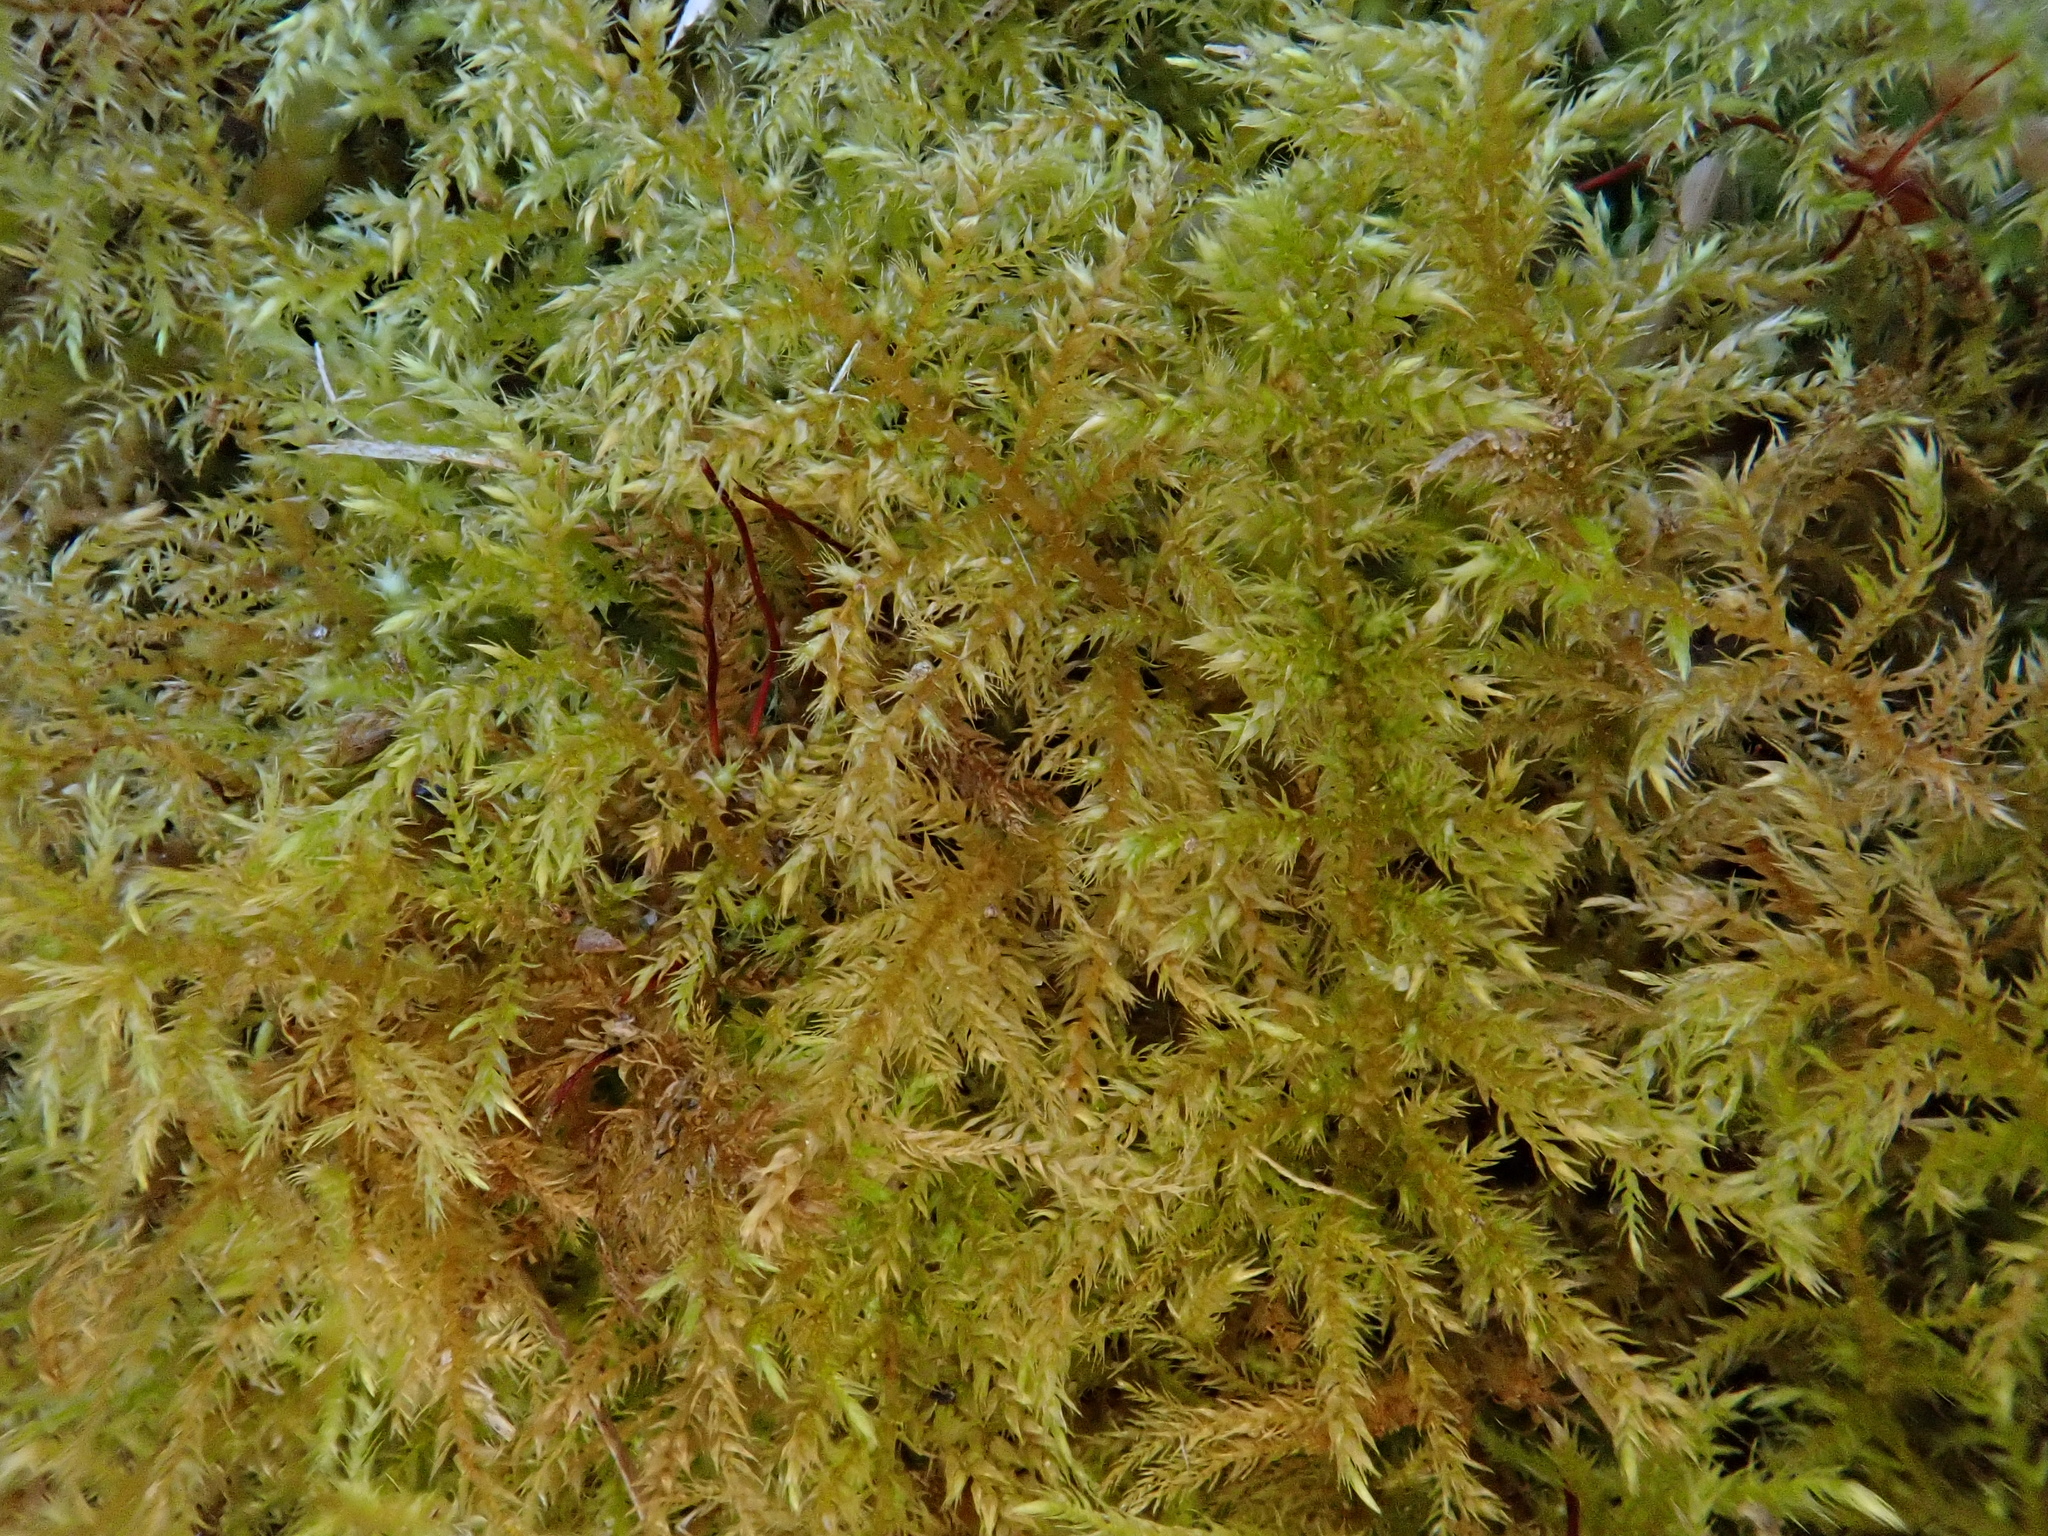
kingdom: Plantae
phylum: Bryophyta
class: Bryopsida
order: Hypnales
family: Brachytheciaceae
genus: Kindbergia
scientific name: Kindbergia praelonga
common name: Slender beaked moss
